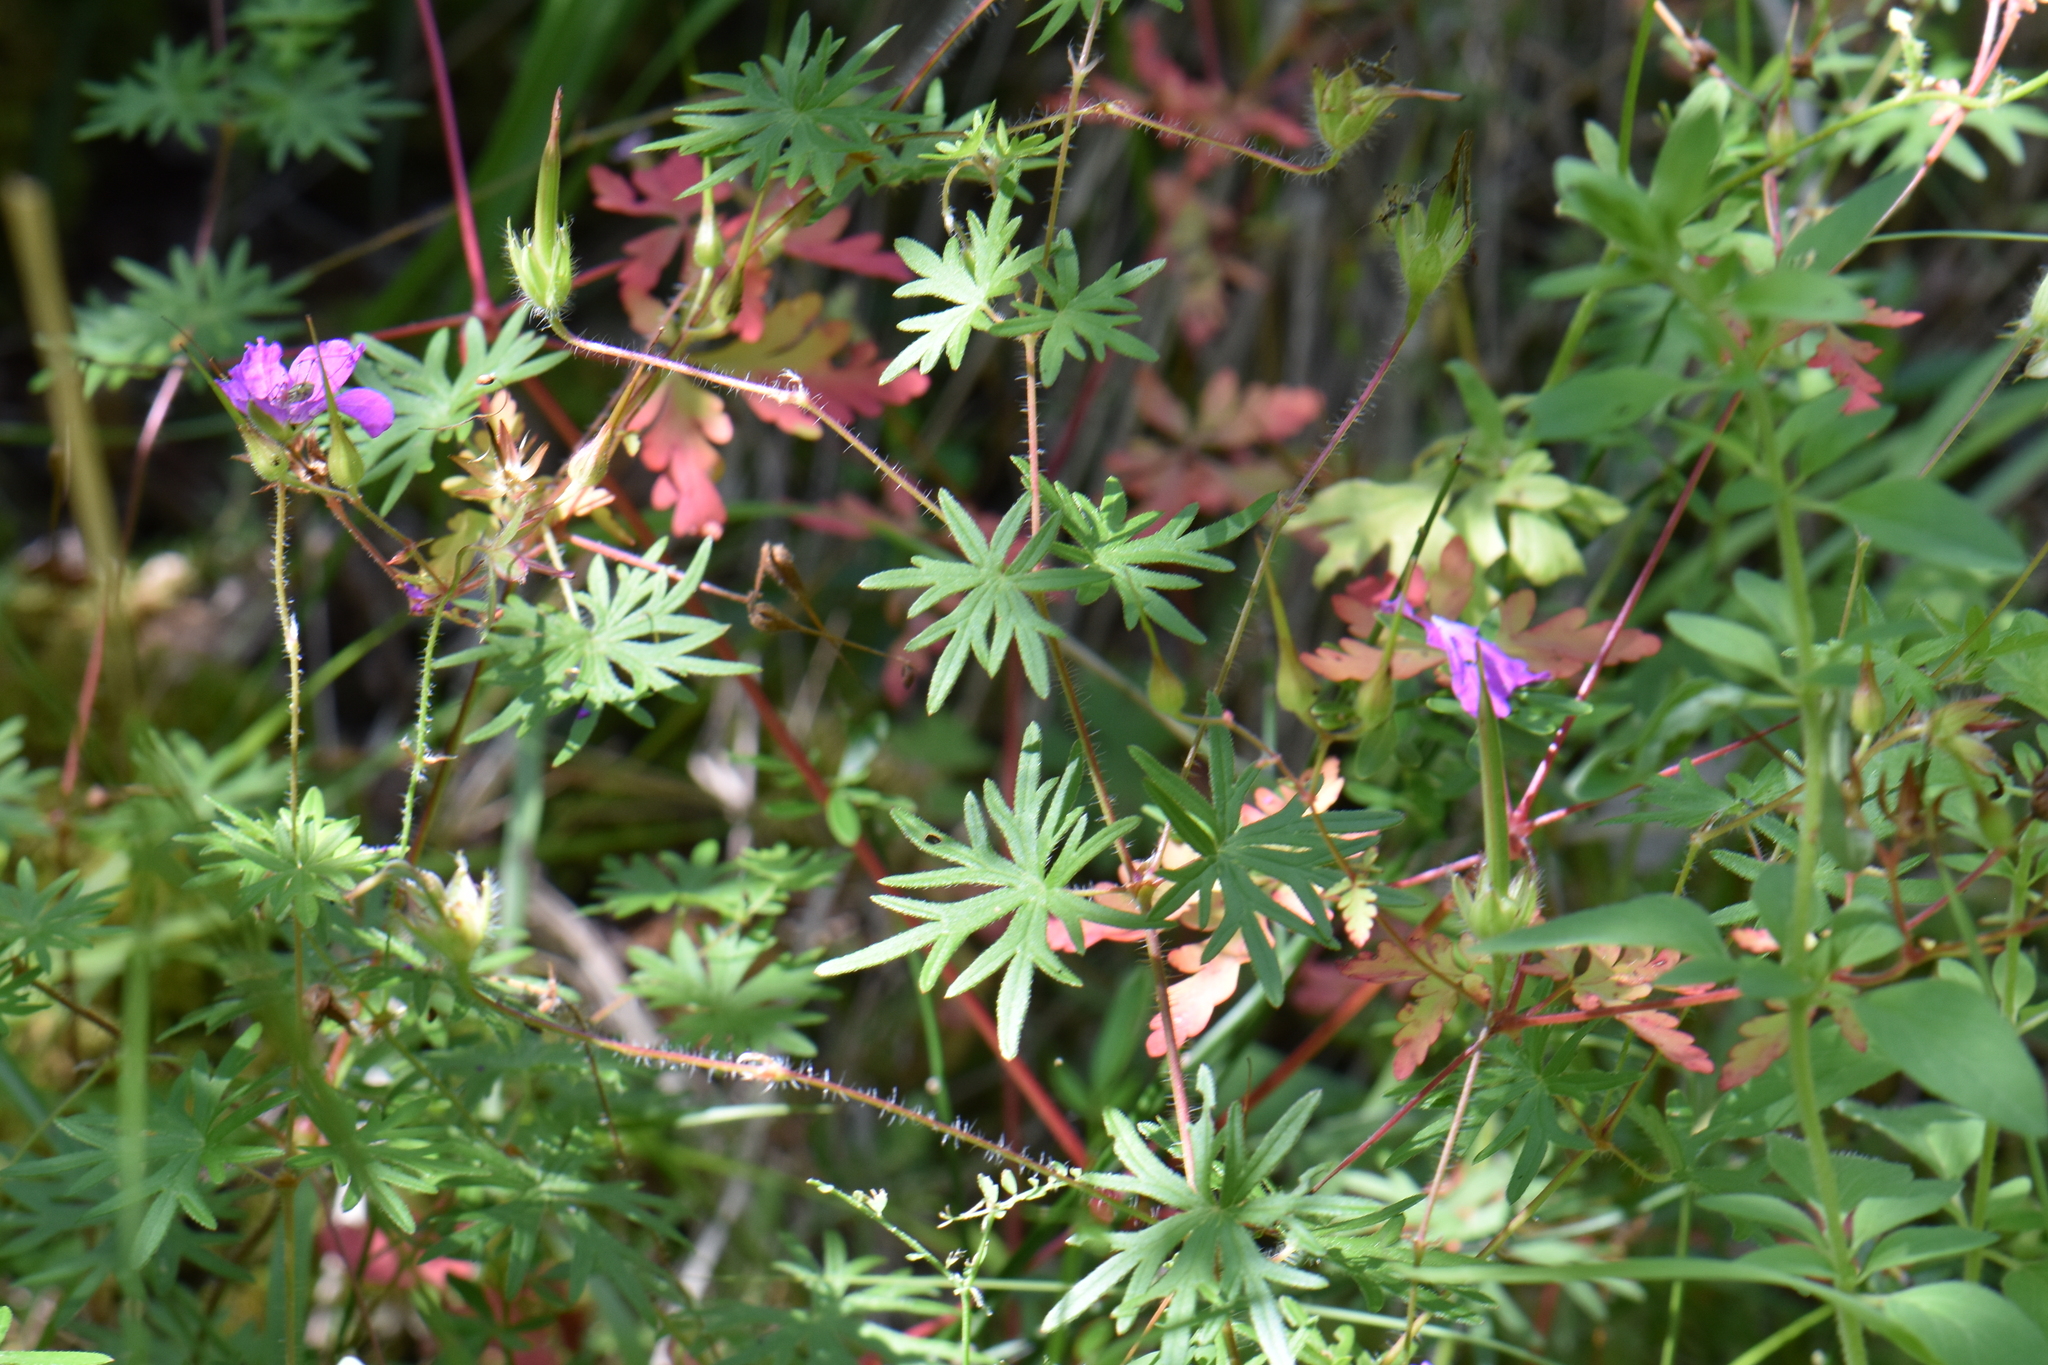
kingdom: Plantae
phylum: Tracheophyta
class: Magnoliopsida
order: Geraniales
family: Geraniaceae
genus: Geranium
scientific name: Geranium sanguineum
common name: Bloody crane's-bill
